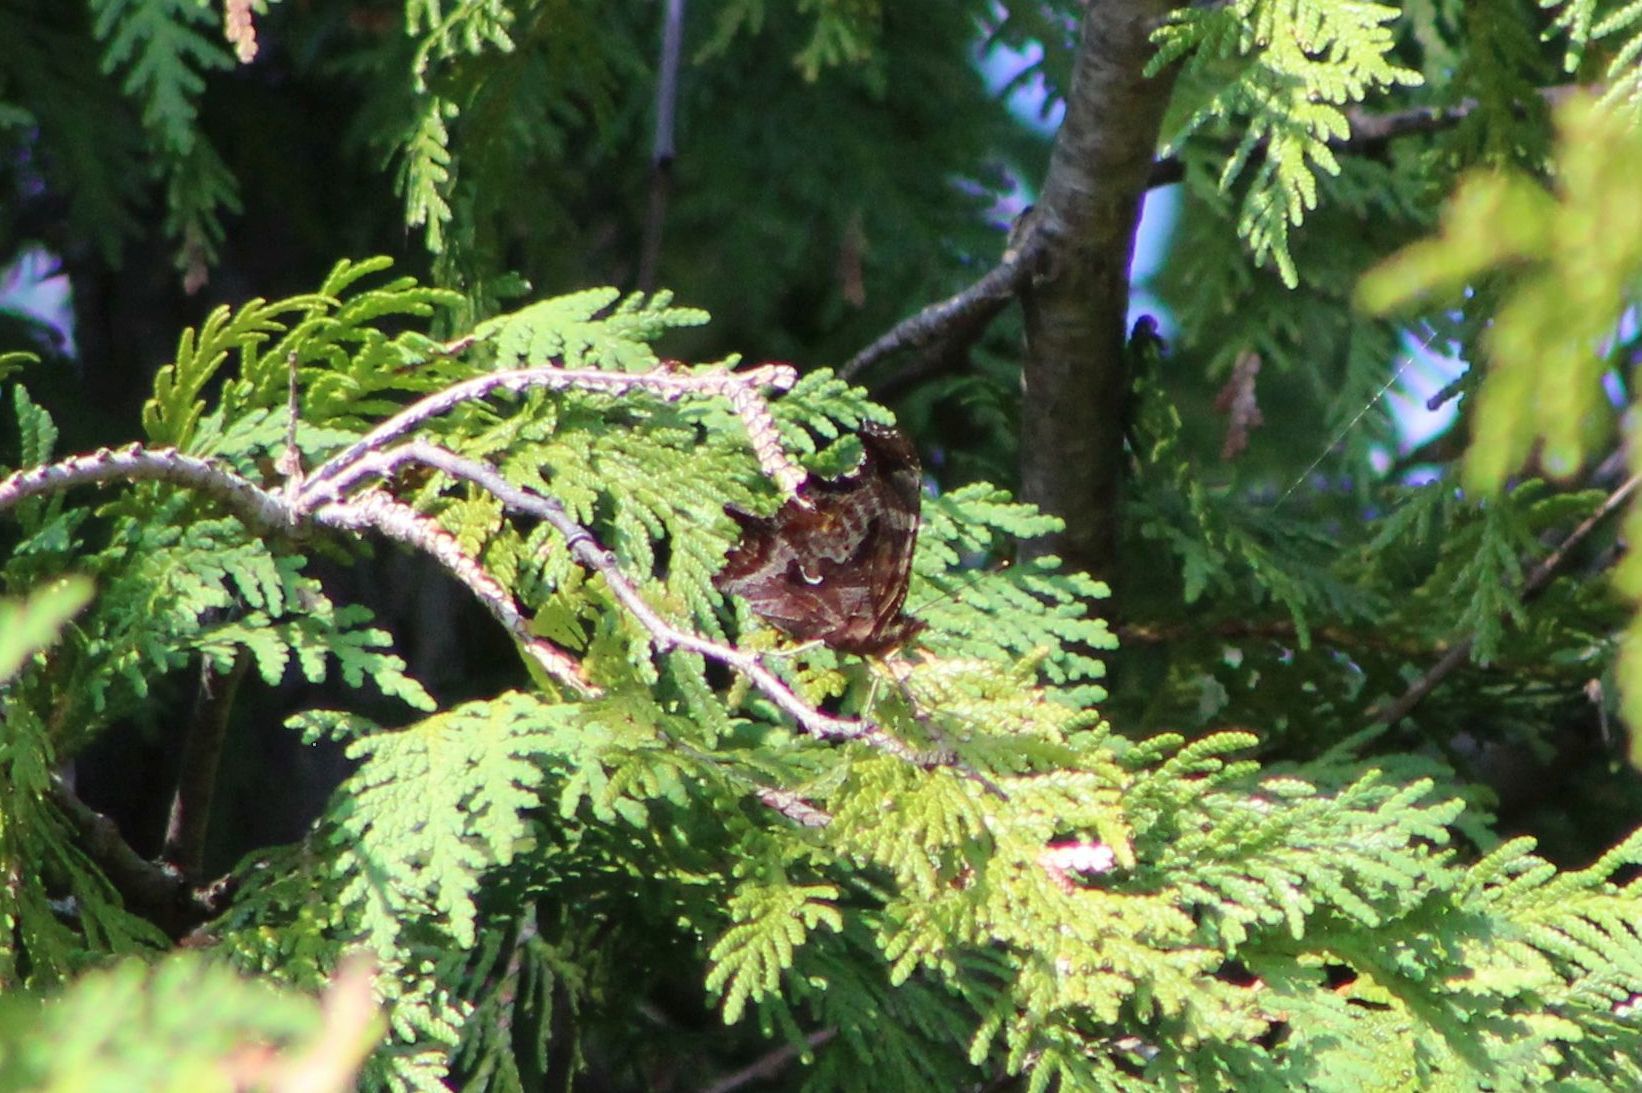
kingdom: Animalia
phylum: Arthropoda
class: Insecta
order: Lepidoptera
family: Nymphalidae
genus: Polygonia
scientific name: Polygonia comma
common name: Eastern comma
